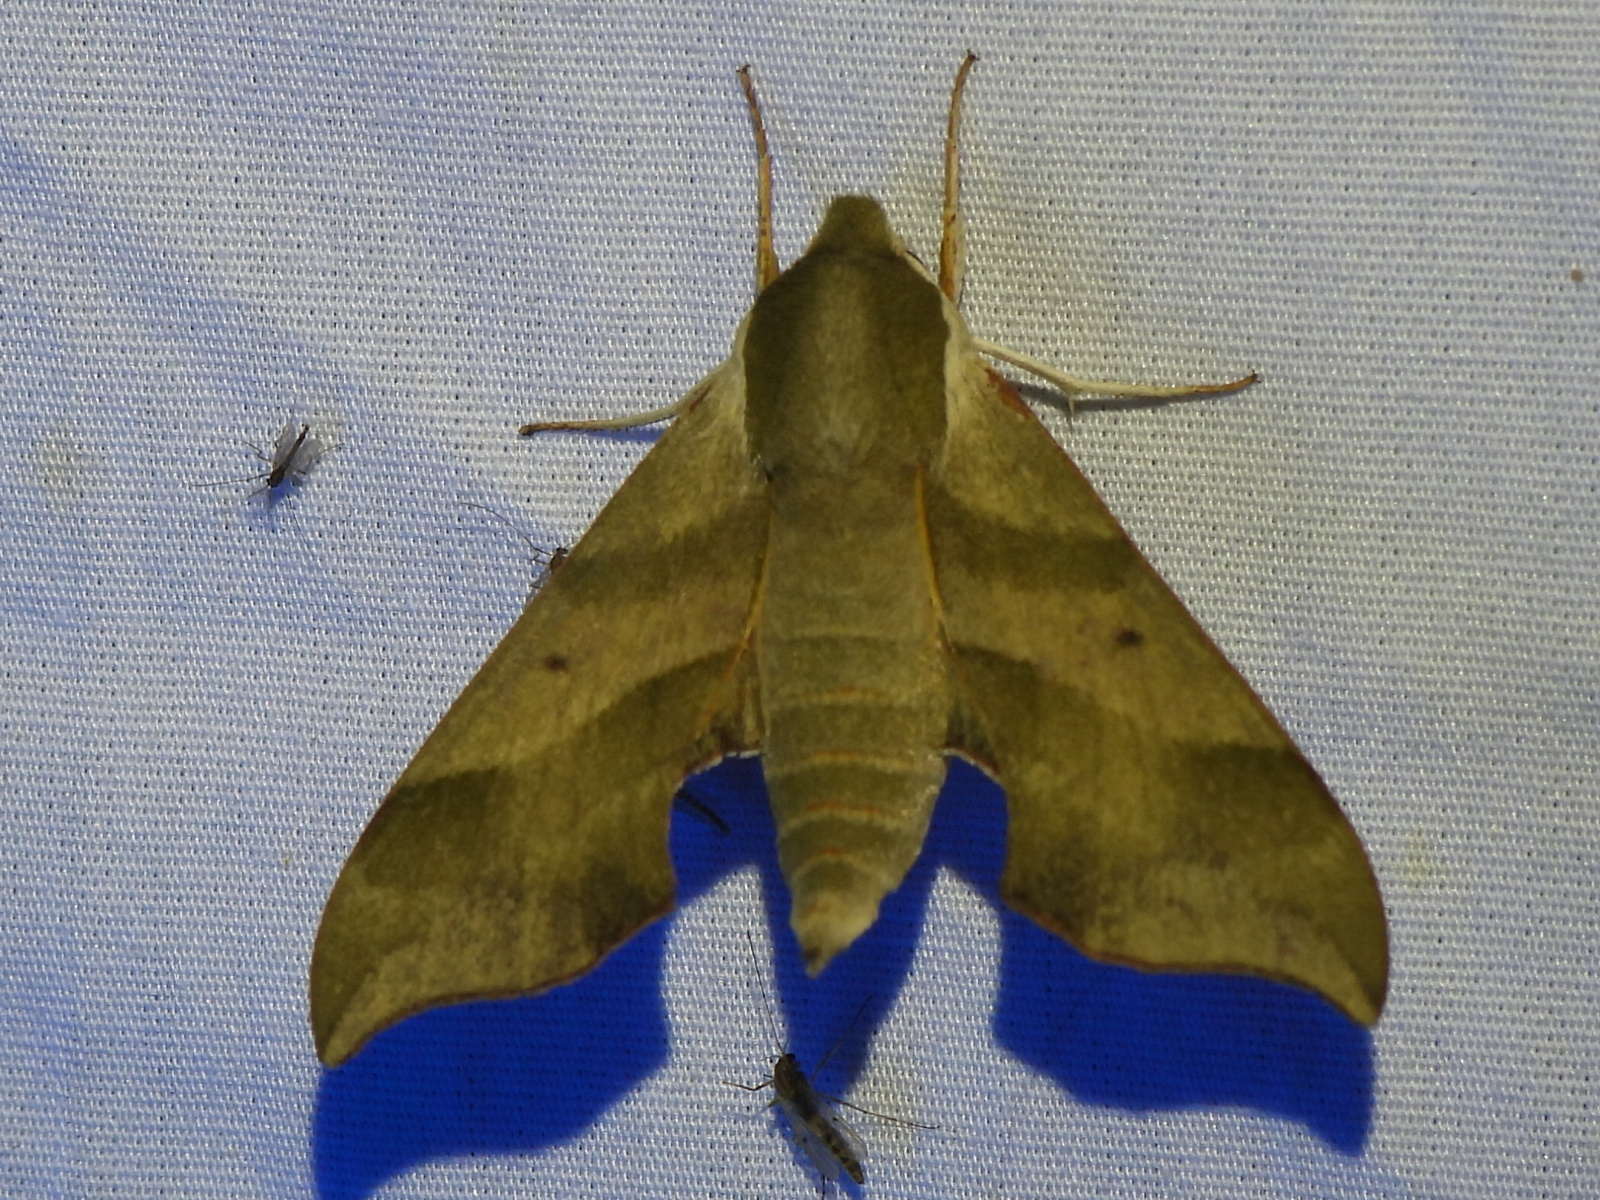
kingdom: Animalia
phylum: Arthropoda
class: Insecta
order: Lepidoptera
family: Sphingidae
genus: Darapsa
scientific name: Darapsa myron
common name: Hog sphinx
